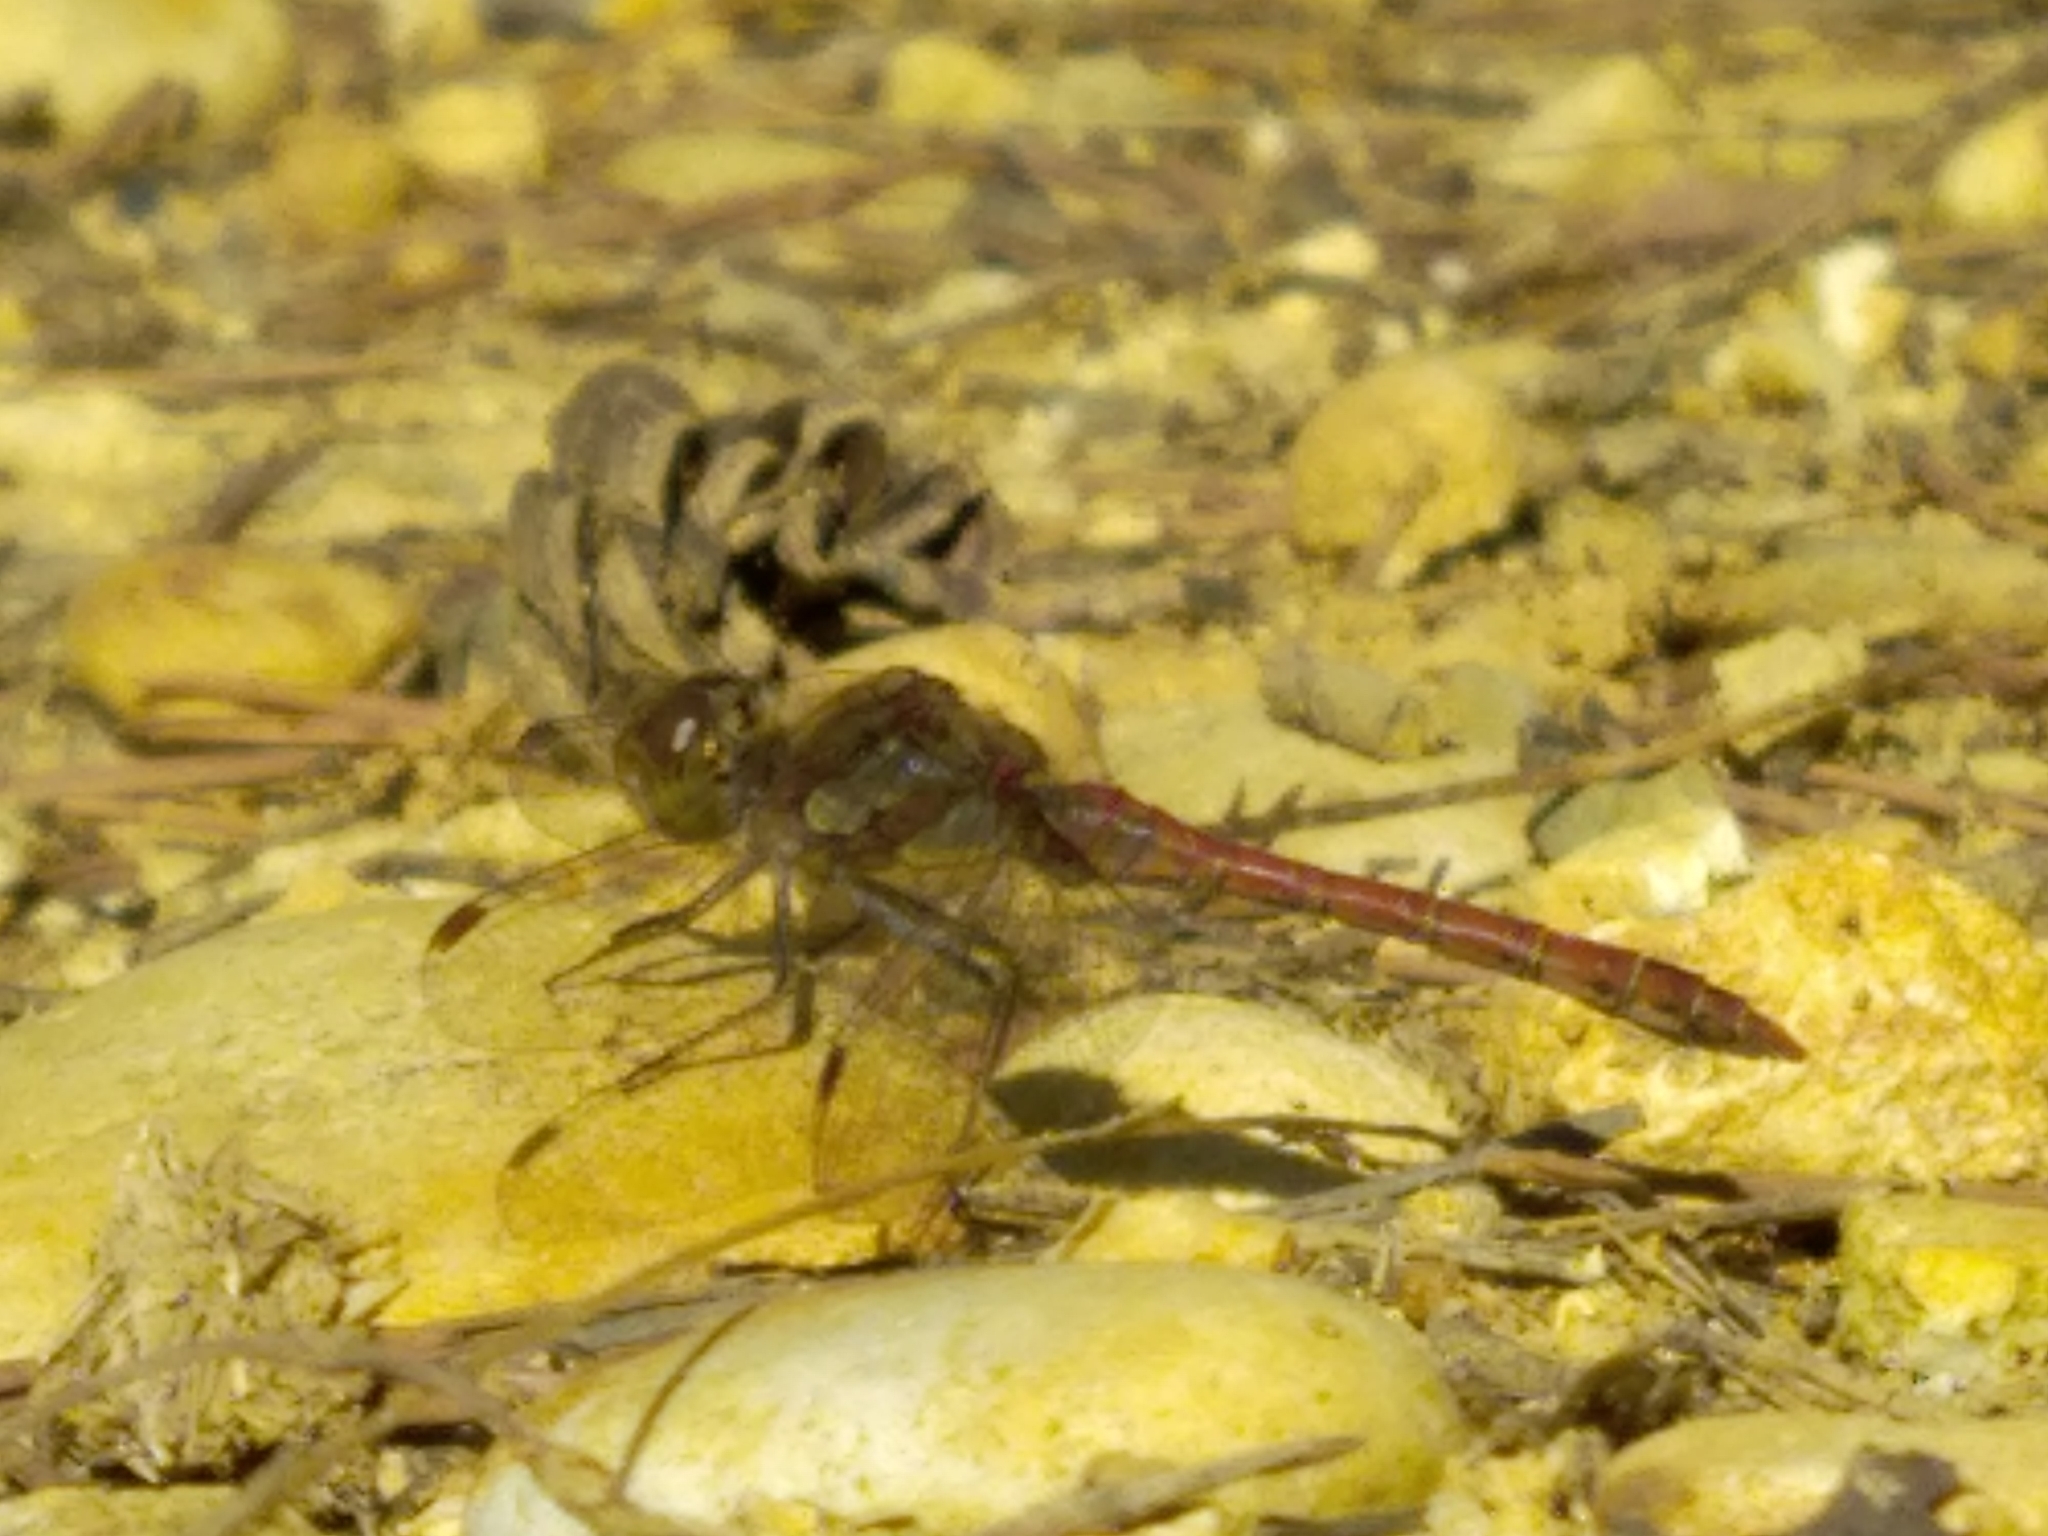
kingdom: Animalia
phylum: Arthropoda
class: Insecta
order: Odonata
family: Libellulidae
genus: Sympetrum
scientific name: Sympetrum striolatum
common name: Common darter
